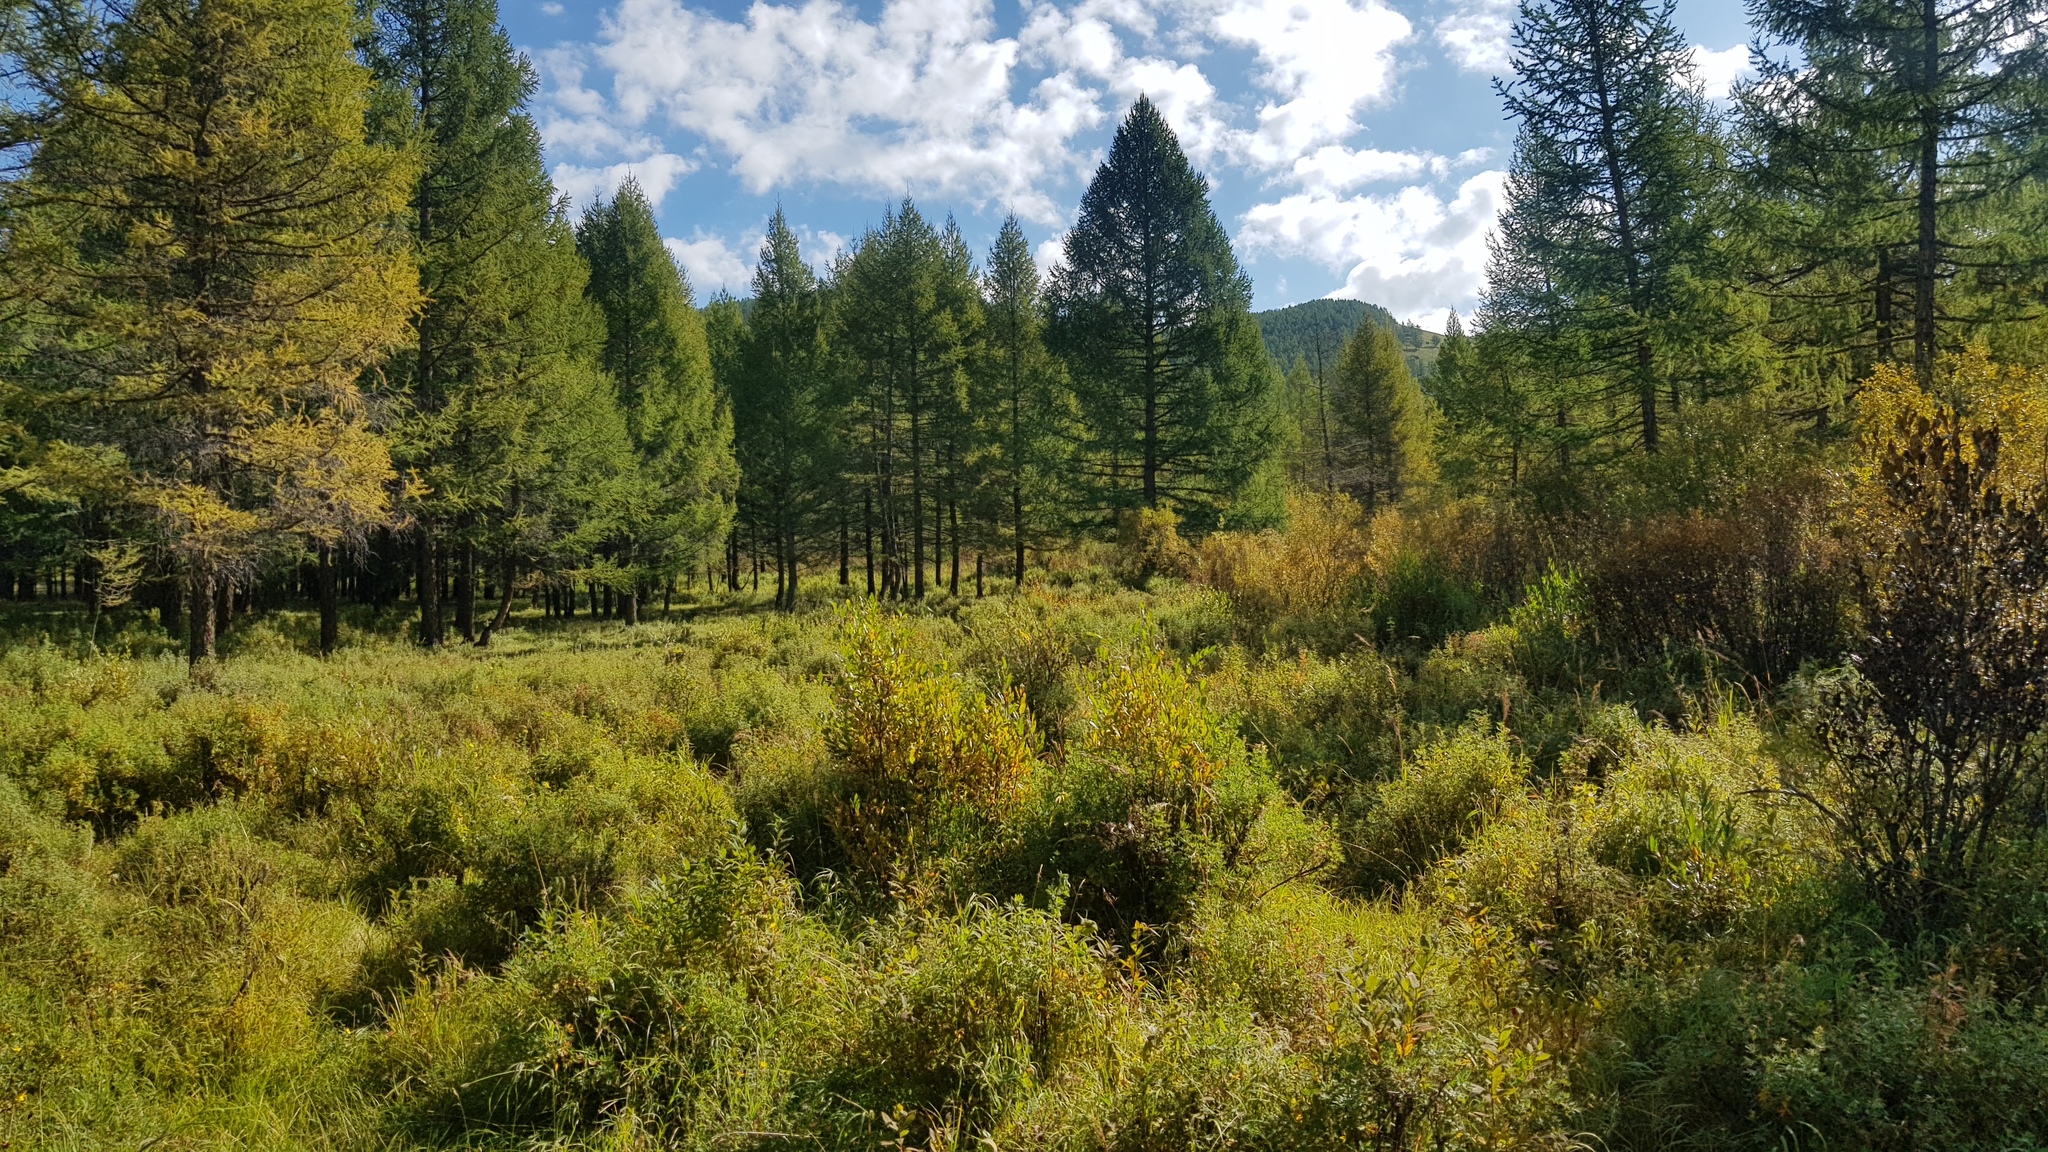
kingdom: Plantae
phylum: Tracheophyta
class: Pinopsida
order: Pinales
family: Pinaceae
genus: Larix
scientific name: Larix sibirica
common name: Siberian larch
